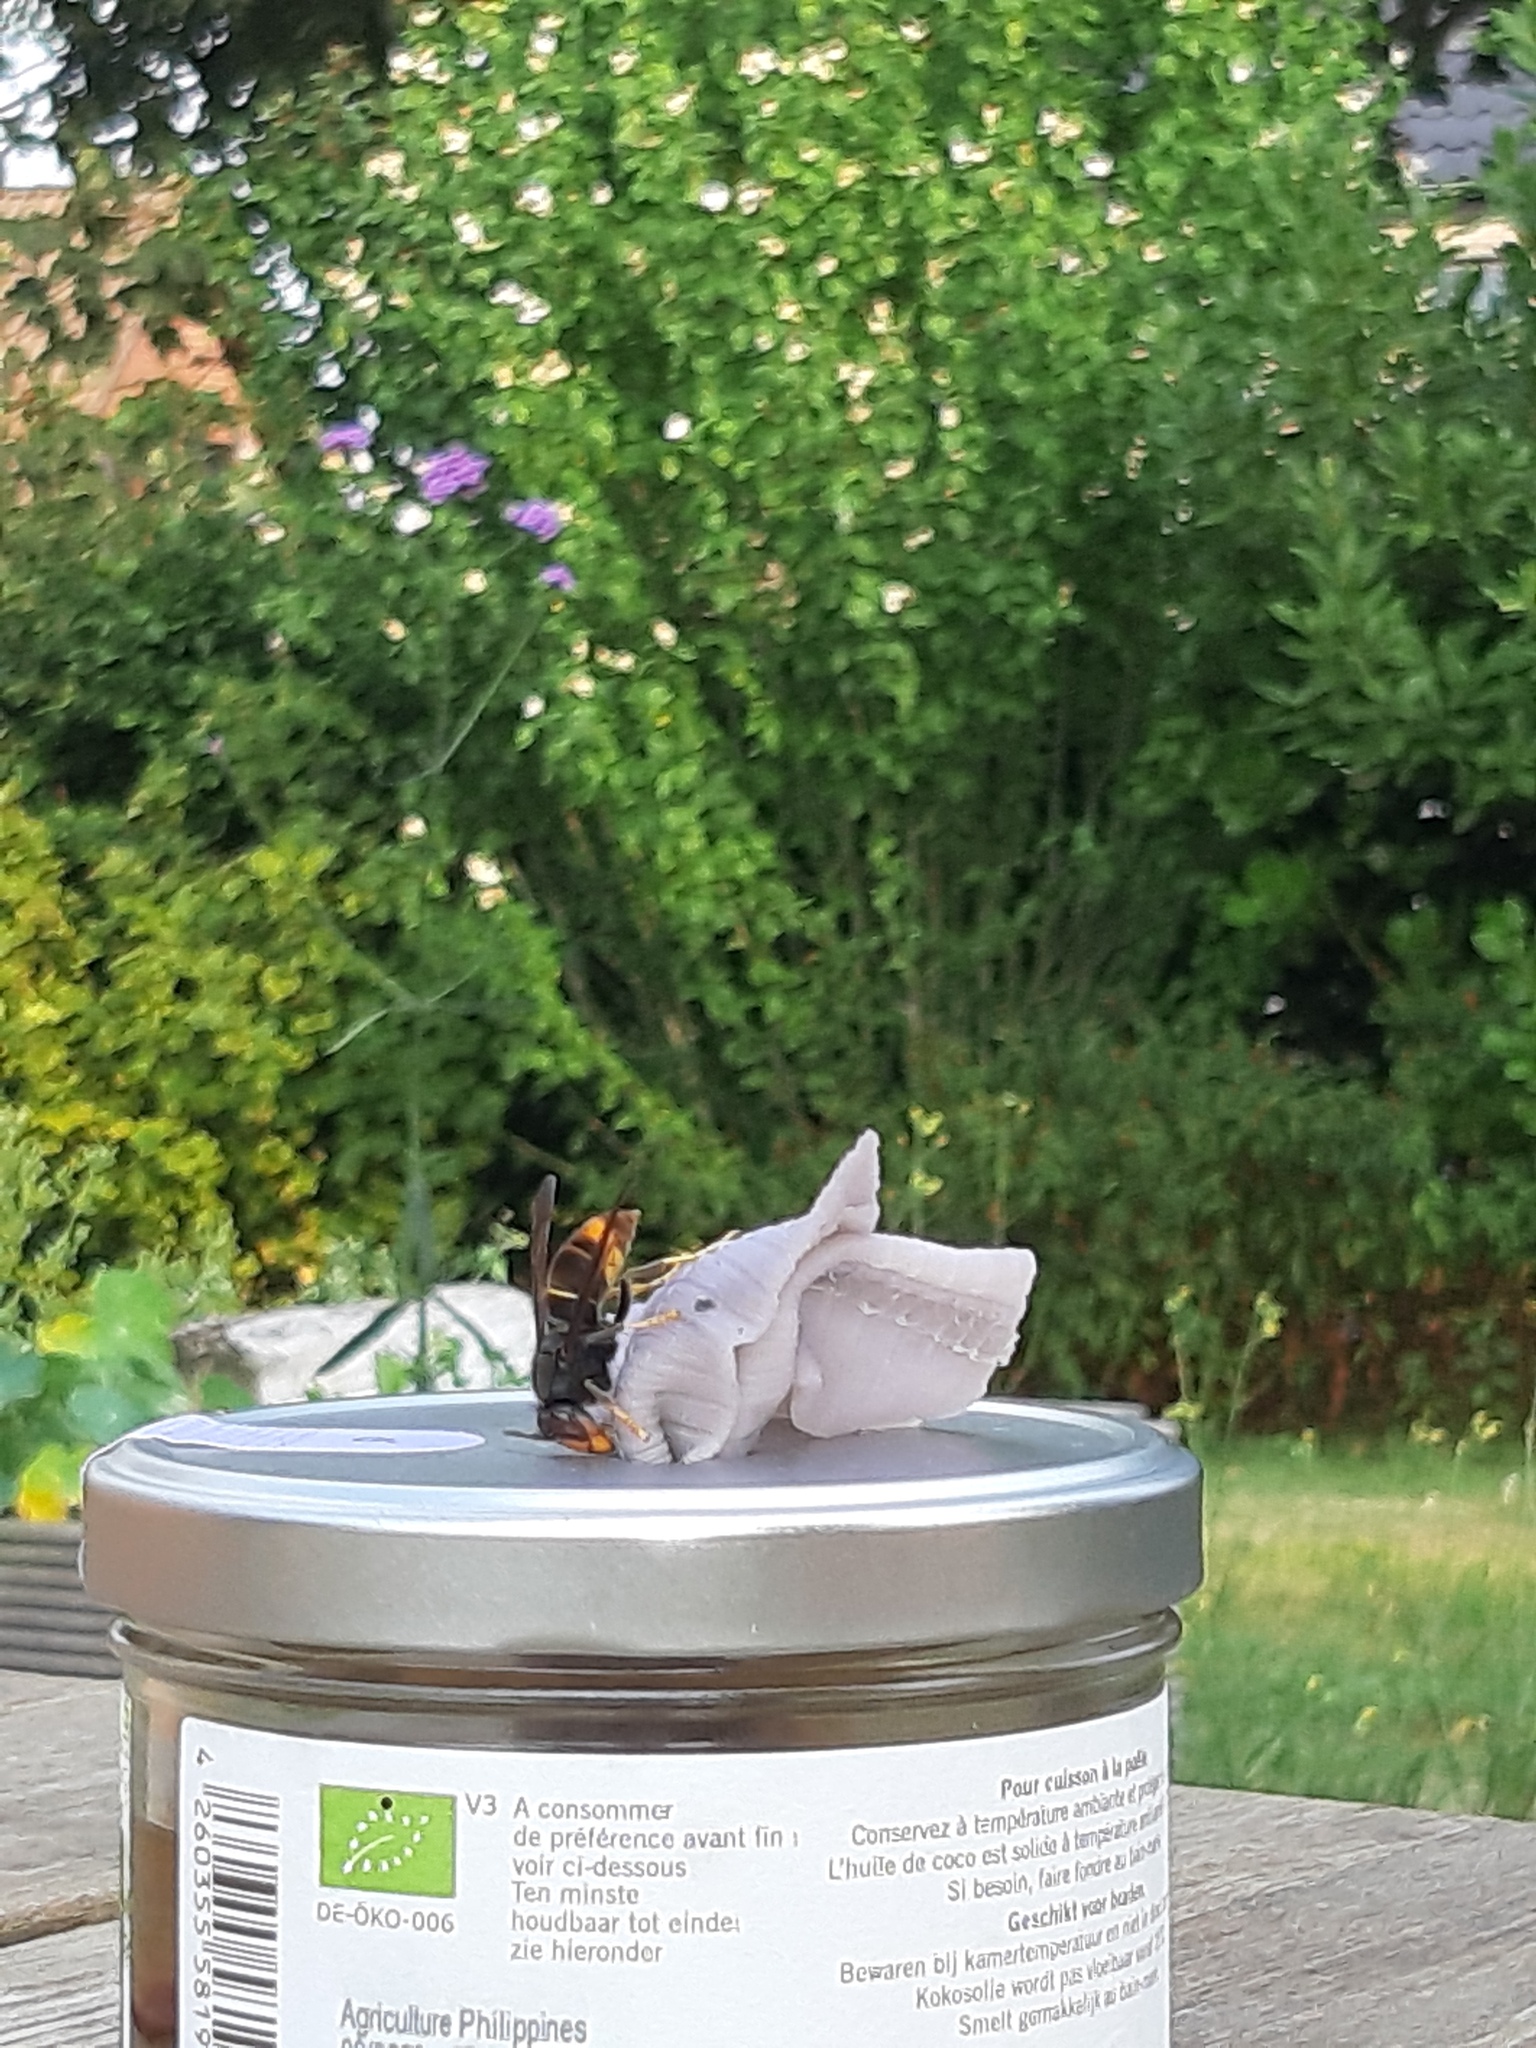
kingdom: Animalia
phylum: Arthropoda
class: Insecta
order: Hymenoptera
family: Vespidae
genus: Vespa
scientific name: Vespa velutina
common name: Asian hornet
